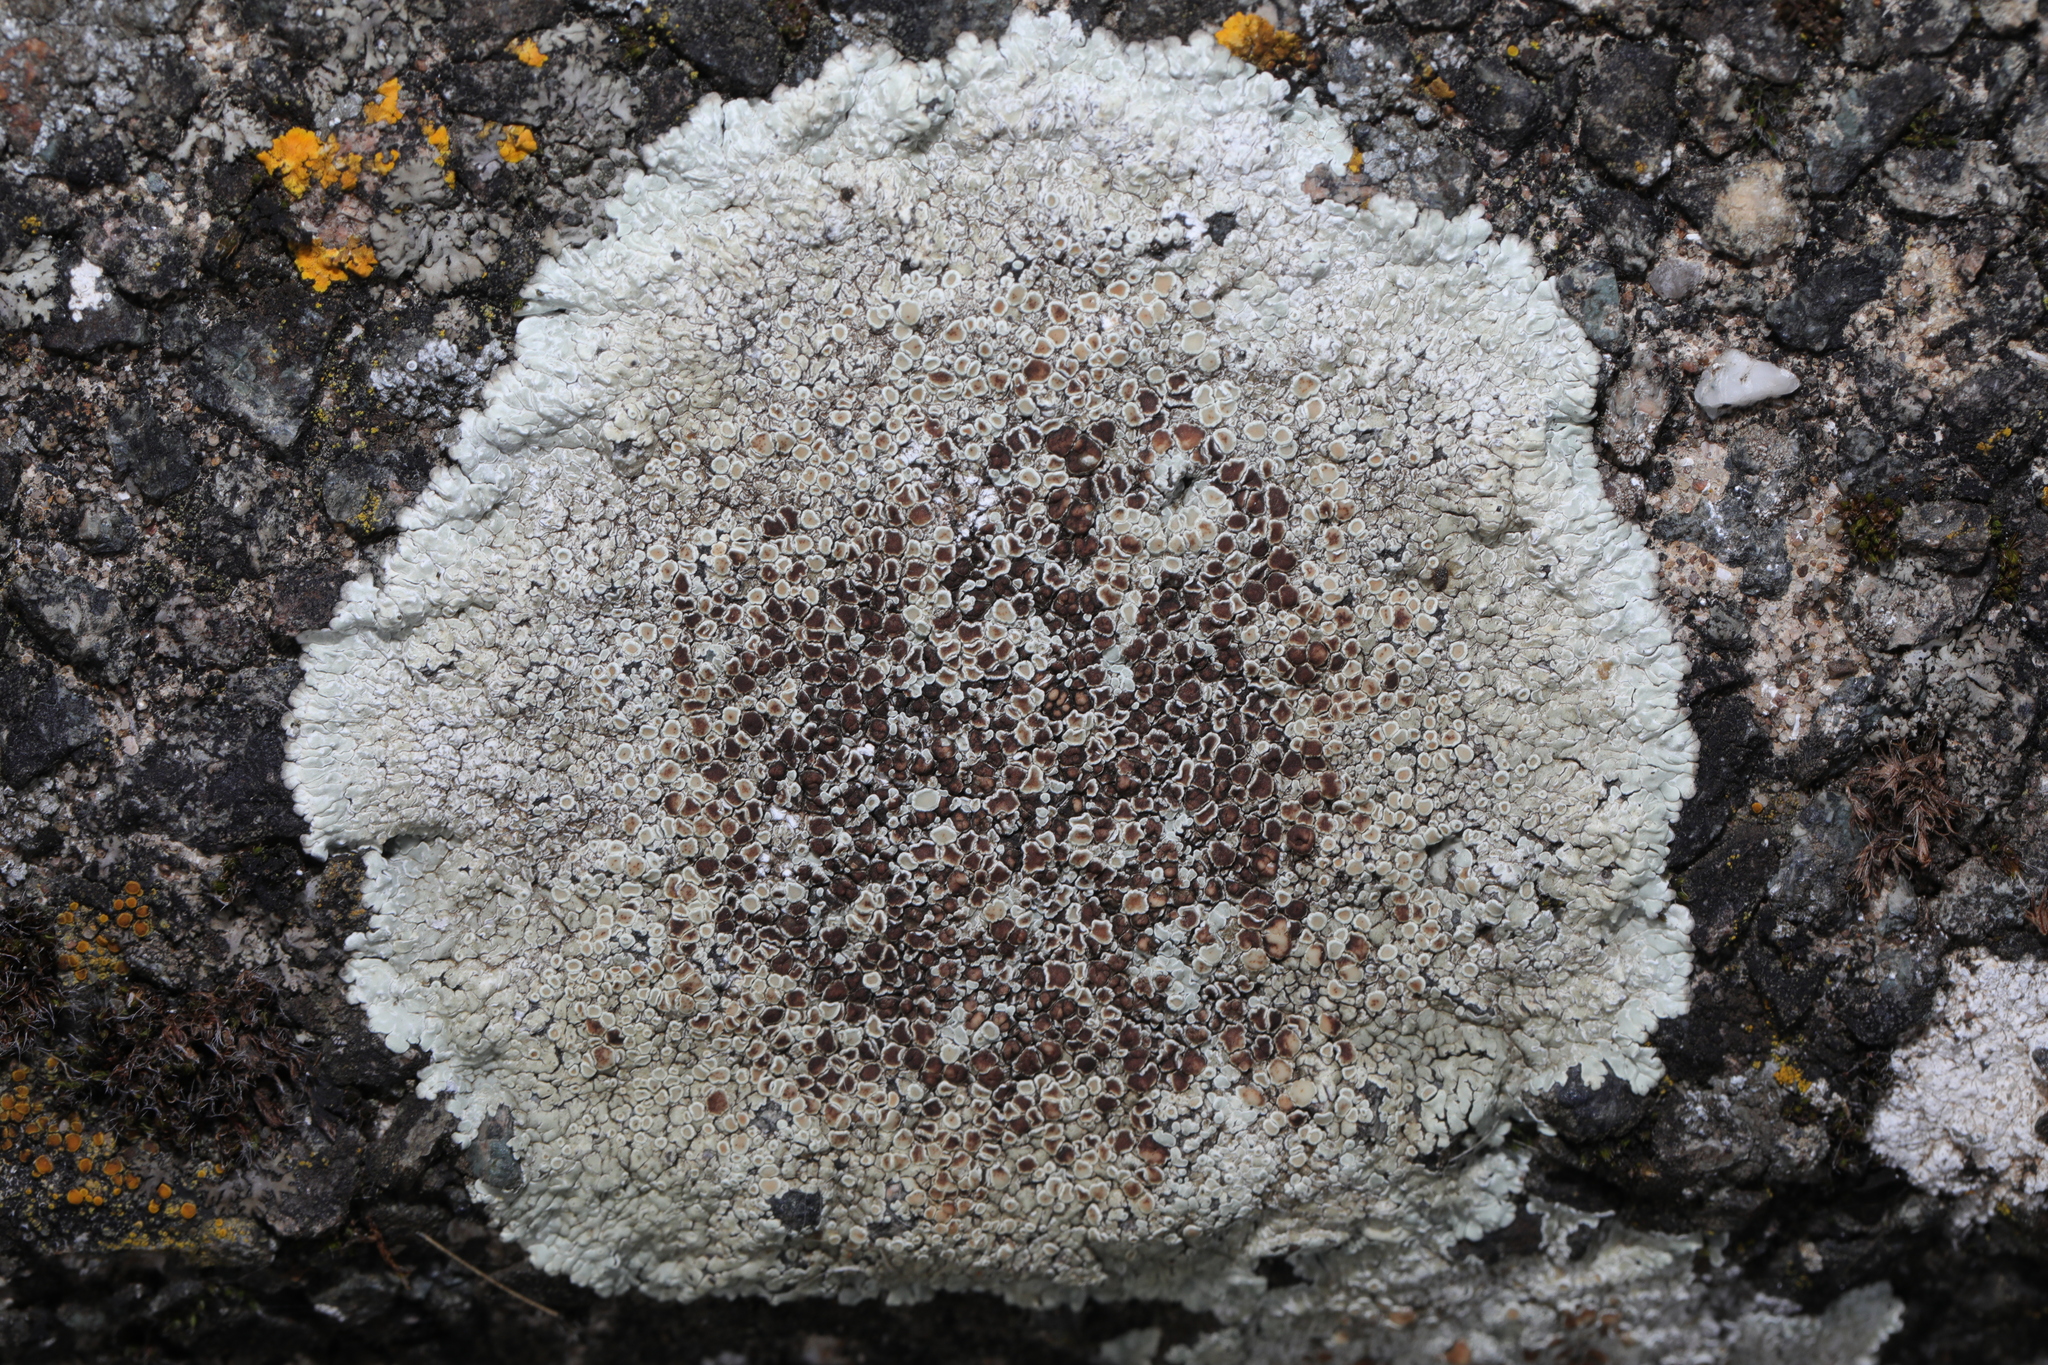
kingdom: Fungi
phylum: Ascomycota
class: Lecanoromycetes
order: Lecanorales
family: Lecanoraceae
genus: Protoparmeliopsis
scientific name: Protoparmeliopsis muralis
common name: Stonewall rim lichen
